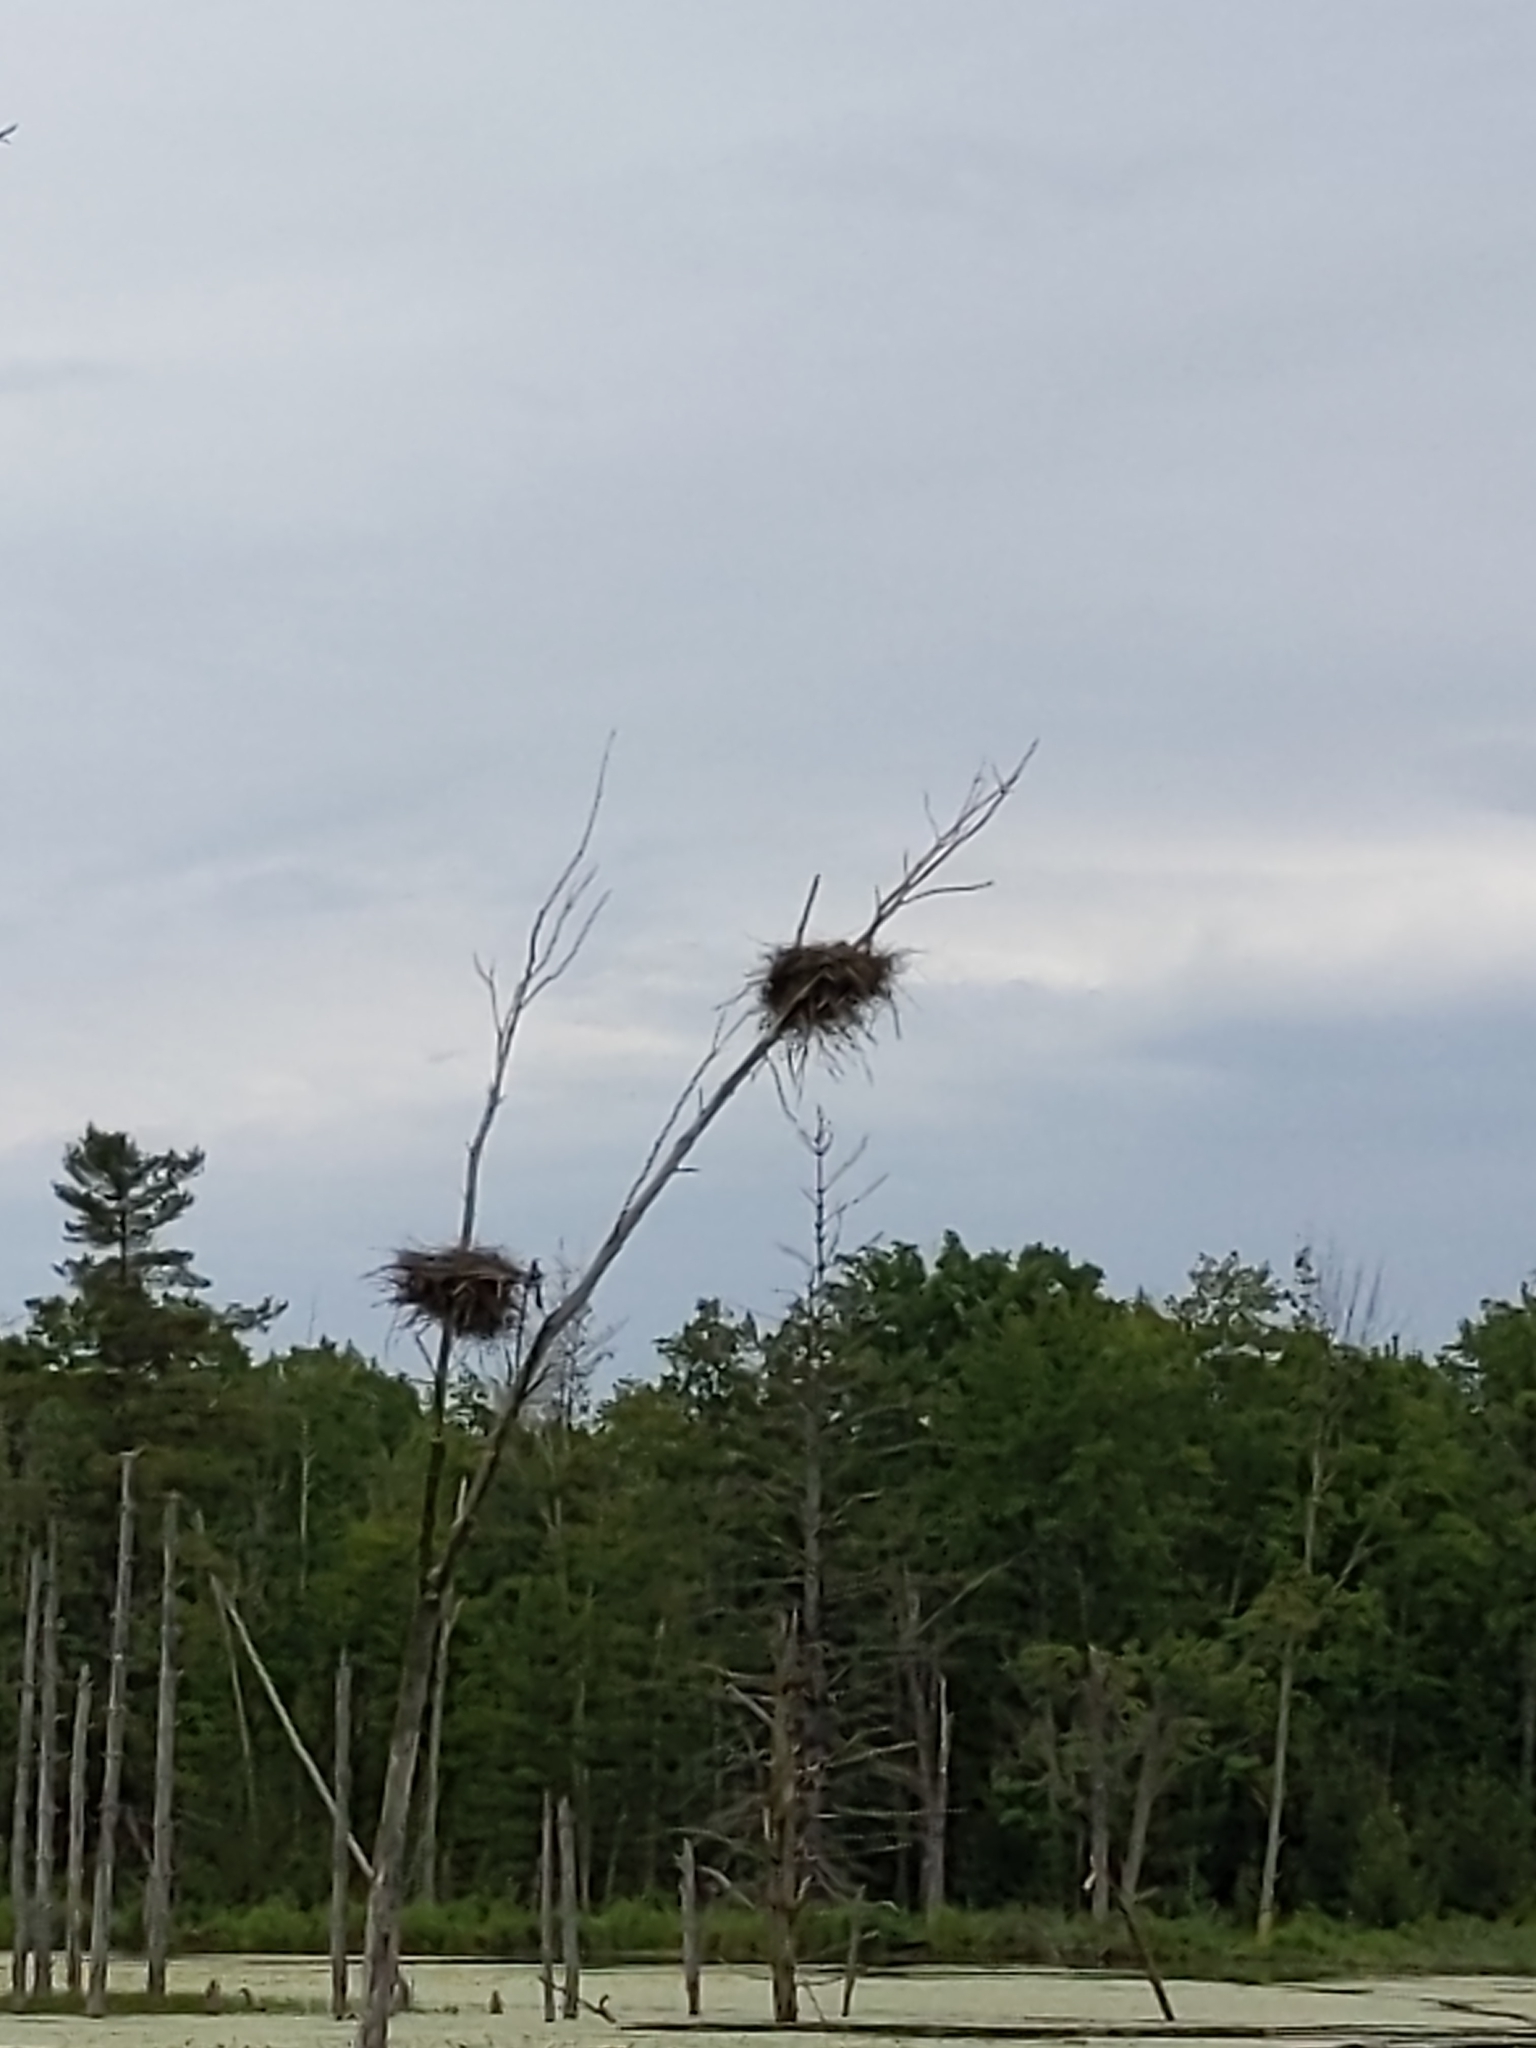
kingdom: Animalia
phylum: Chordata
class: Aves
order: Pelecaniformes
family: Ardeidae
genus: Ardea
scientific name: Ardea herodias
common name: Great blue heron
